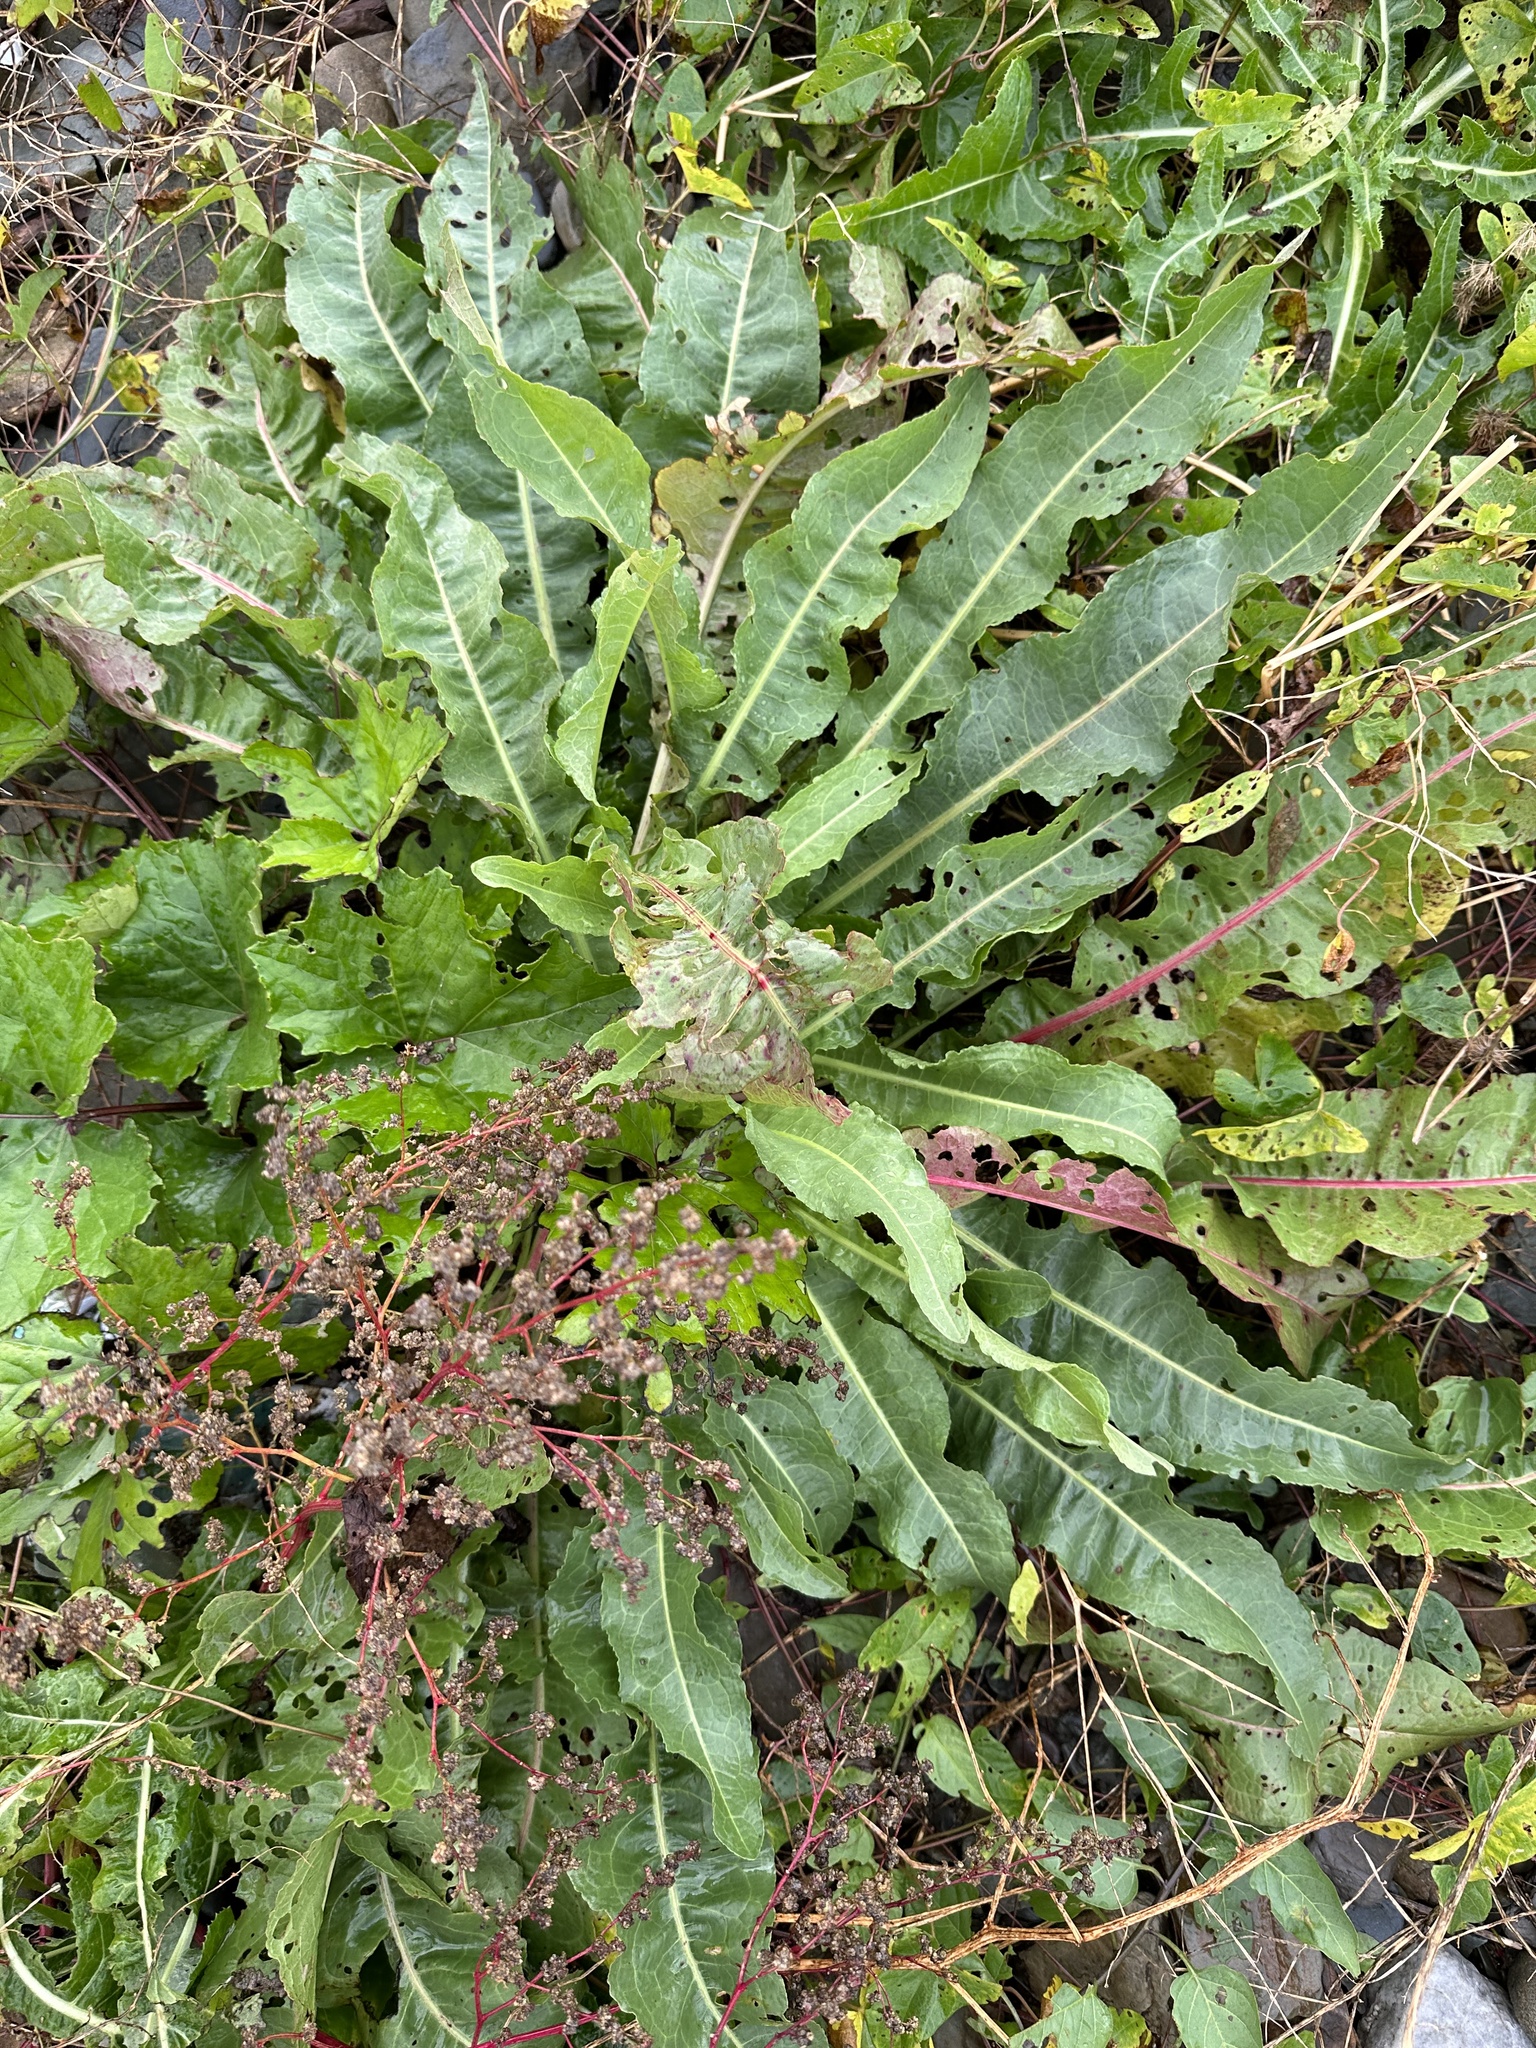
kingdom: Plantae
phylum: Tracheophyta
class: Magnoliopsida
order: Caryophyllales
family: Polygonaceae
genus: Rumex
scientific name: Rumex crispus
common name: Curled dock
